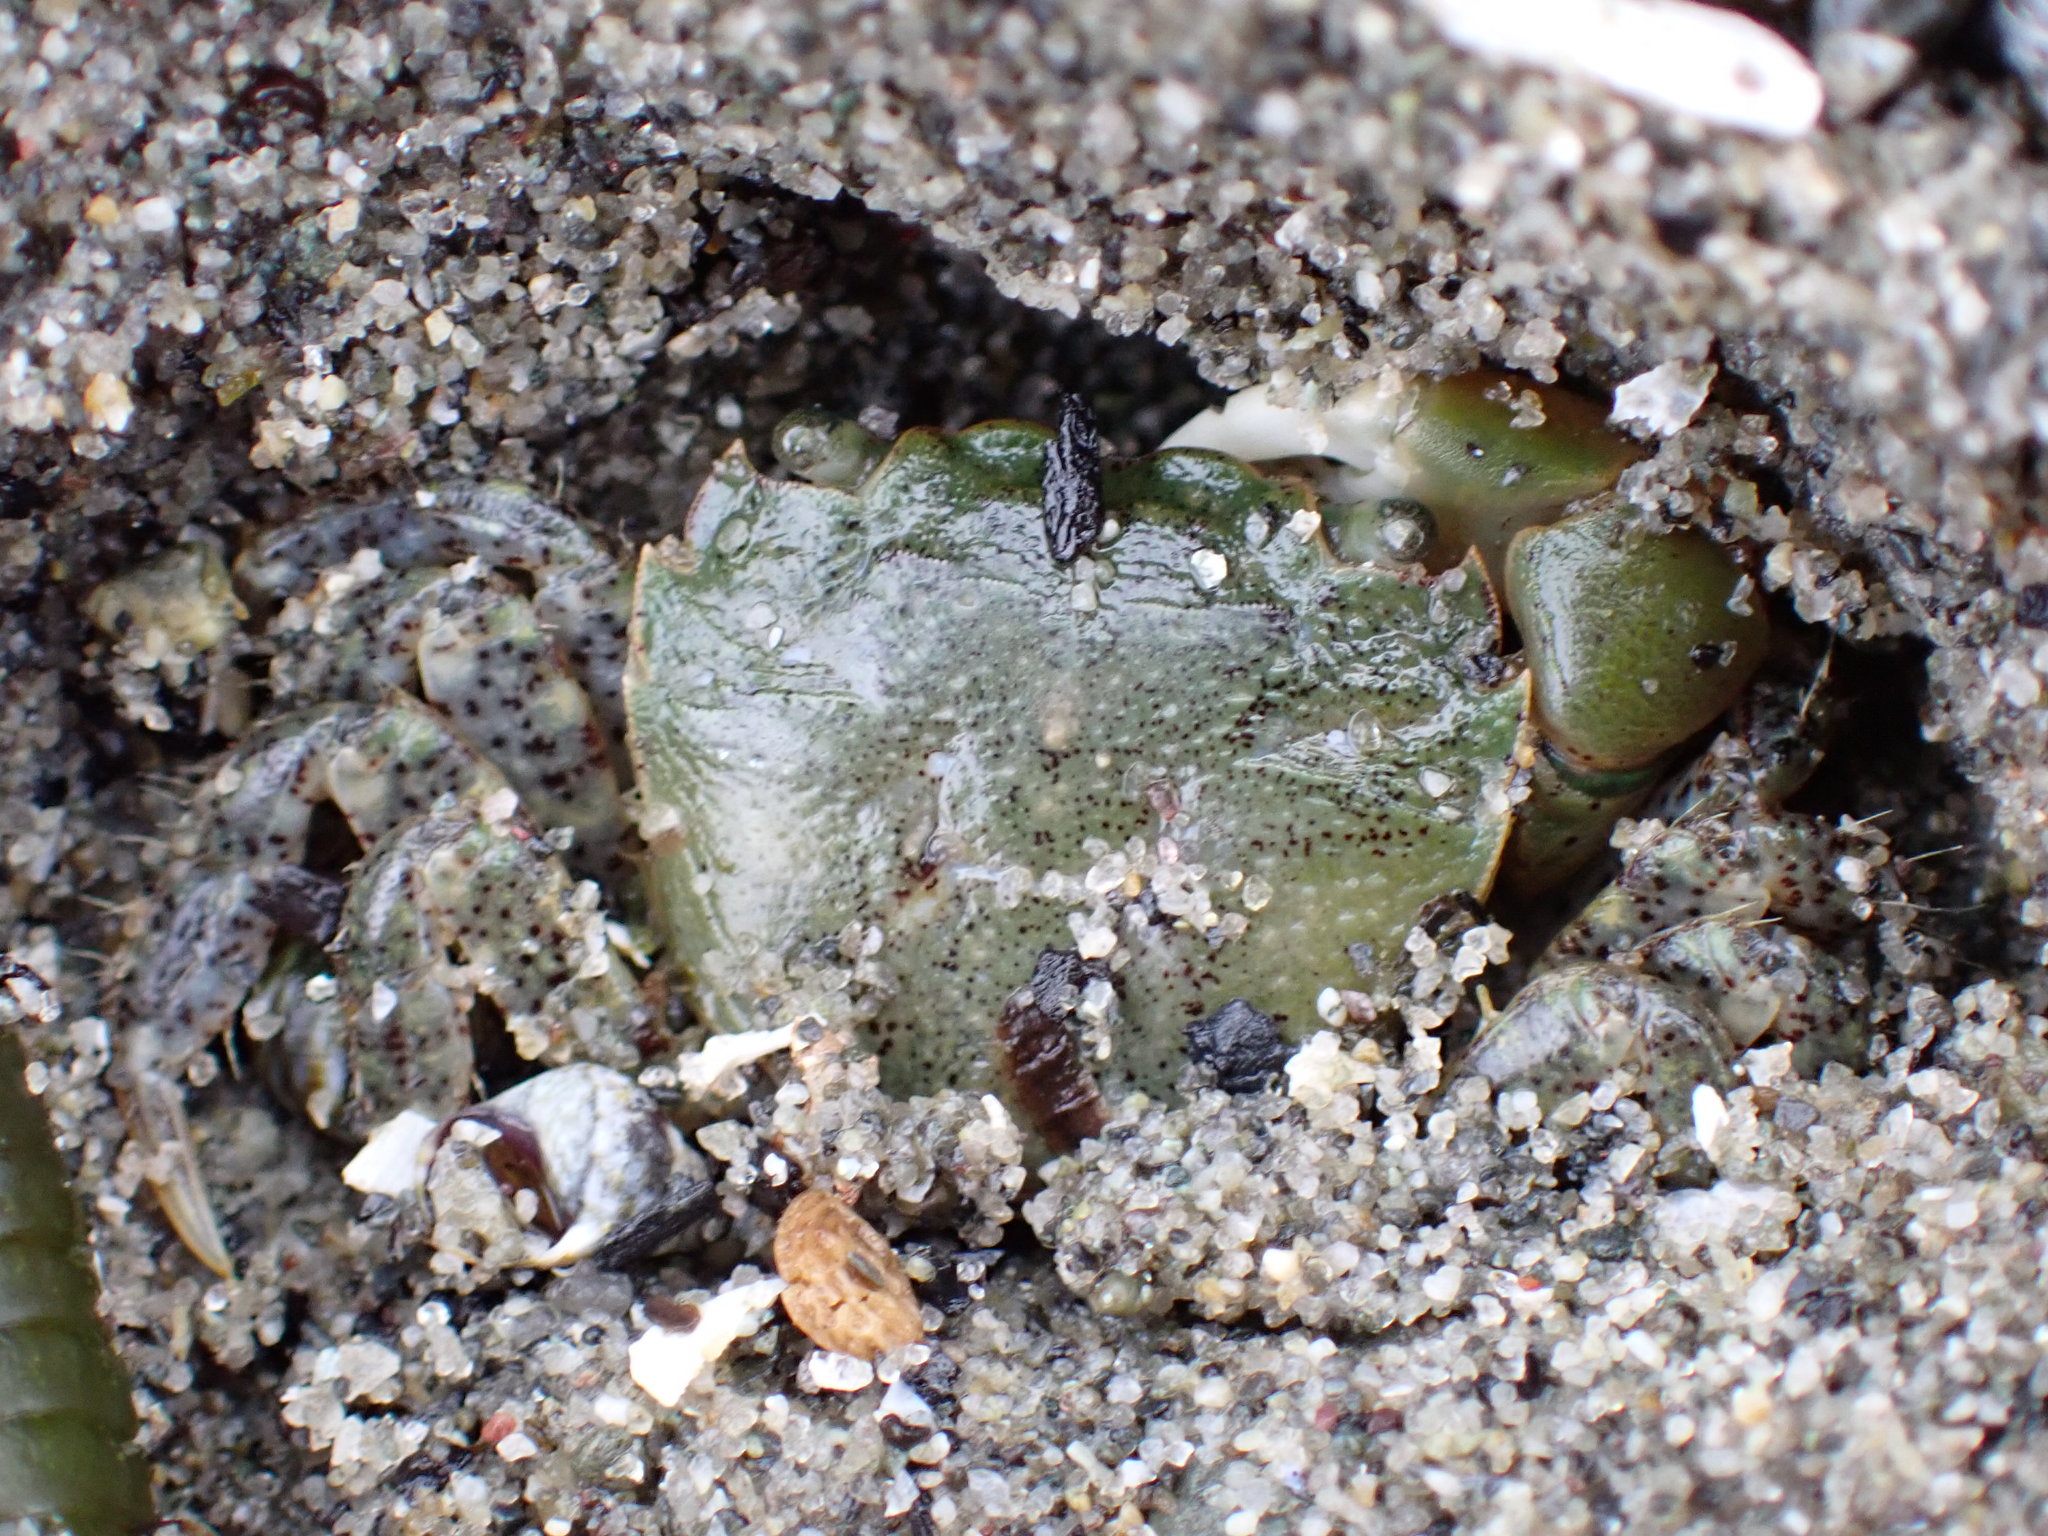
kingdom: Animalia
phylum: Arthropoda
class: Malacostraca
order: Decapoda
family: Varunidae
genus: Hemigrapsus
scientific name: Hemigrapsus oregonensis
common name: Yellow shore crab
